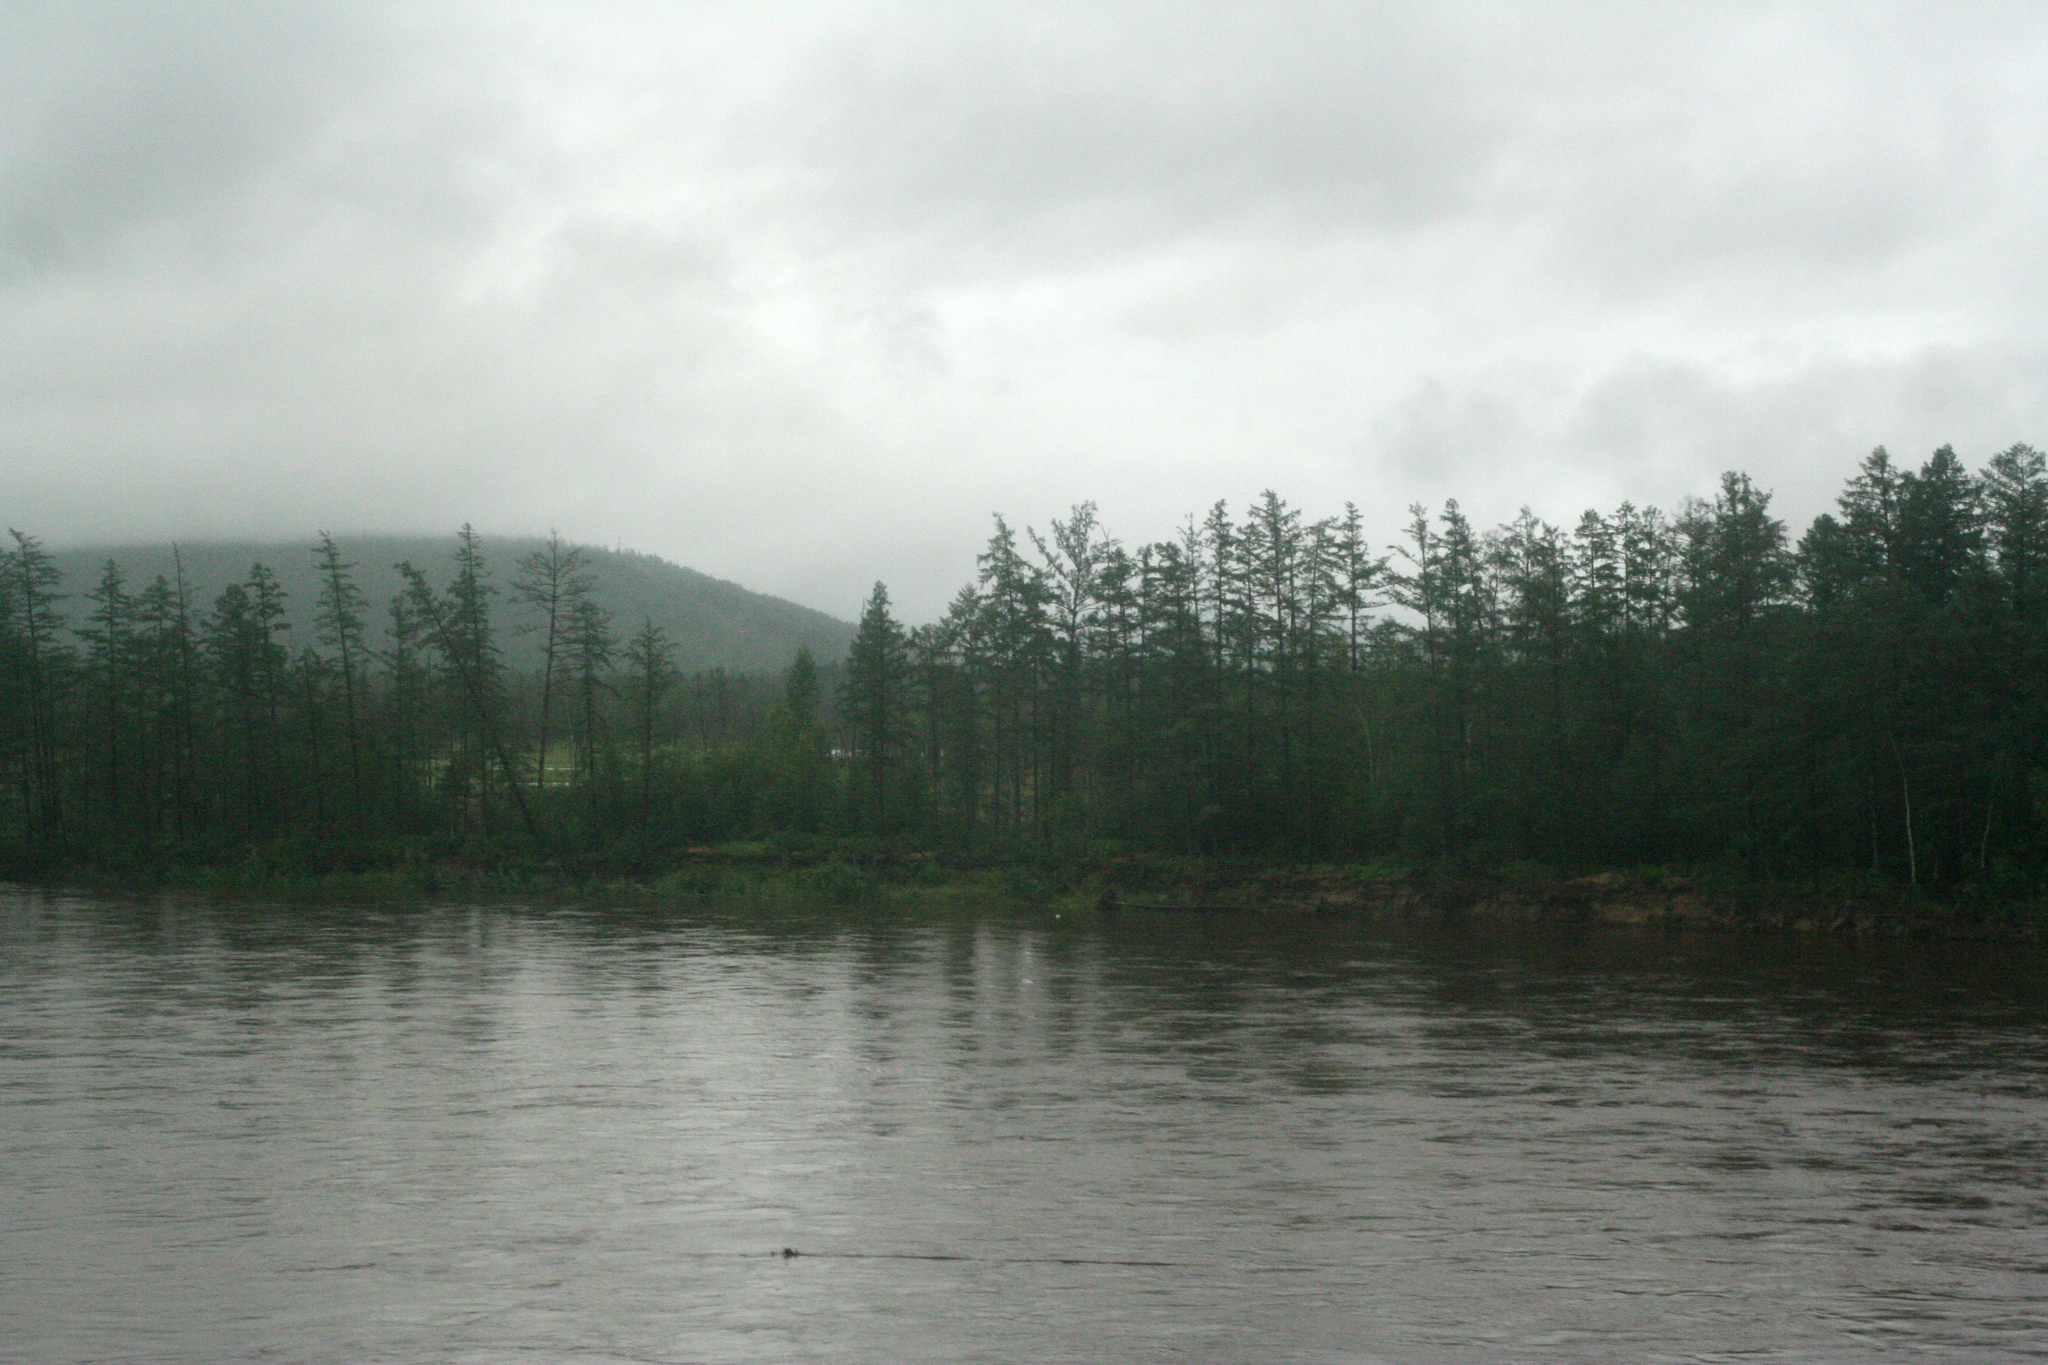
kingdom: Plantae
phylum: Tracheophyta
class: Pinopsida
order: Pinales
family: Pinaceae
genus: Larix
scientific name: Larix gmelinii
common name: Dahurian larch
